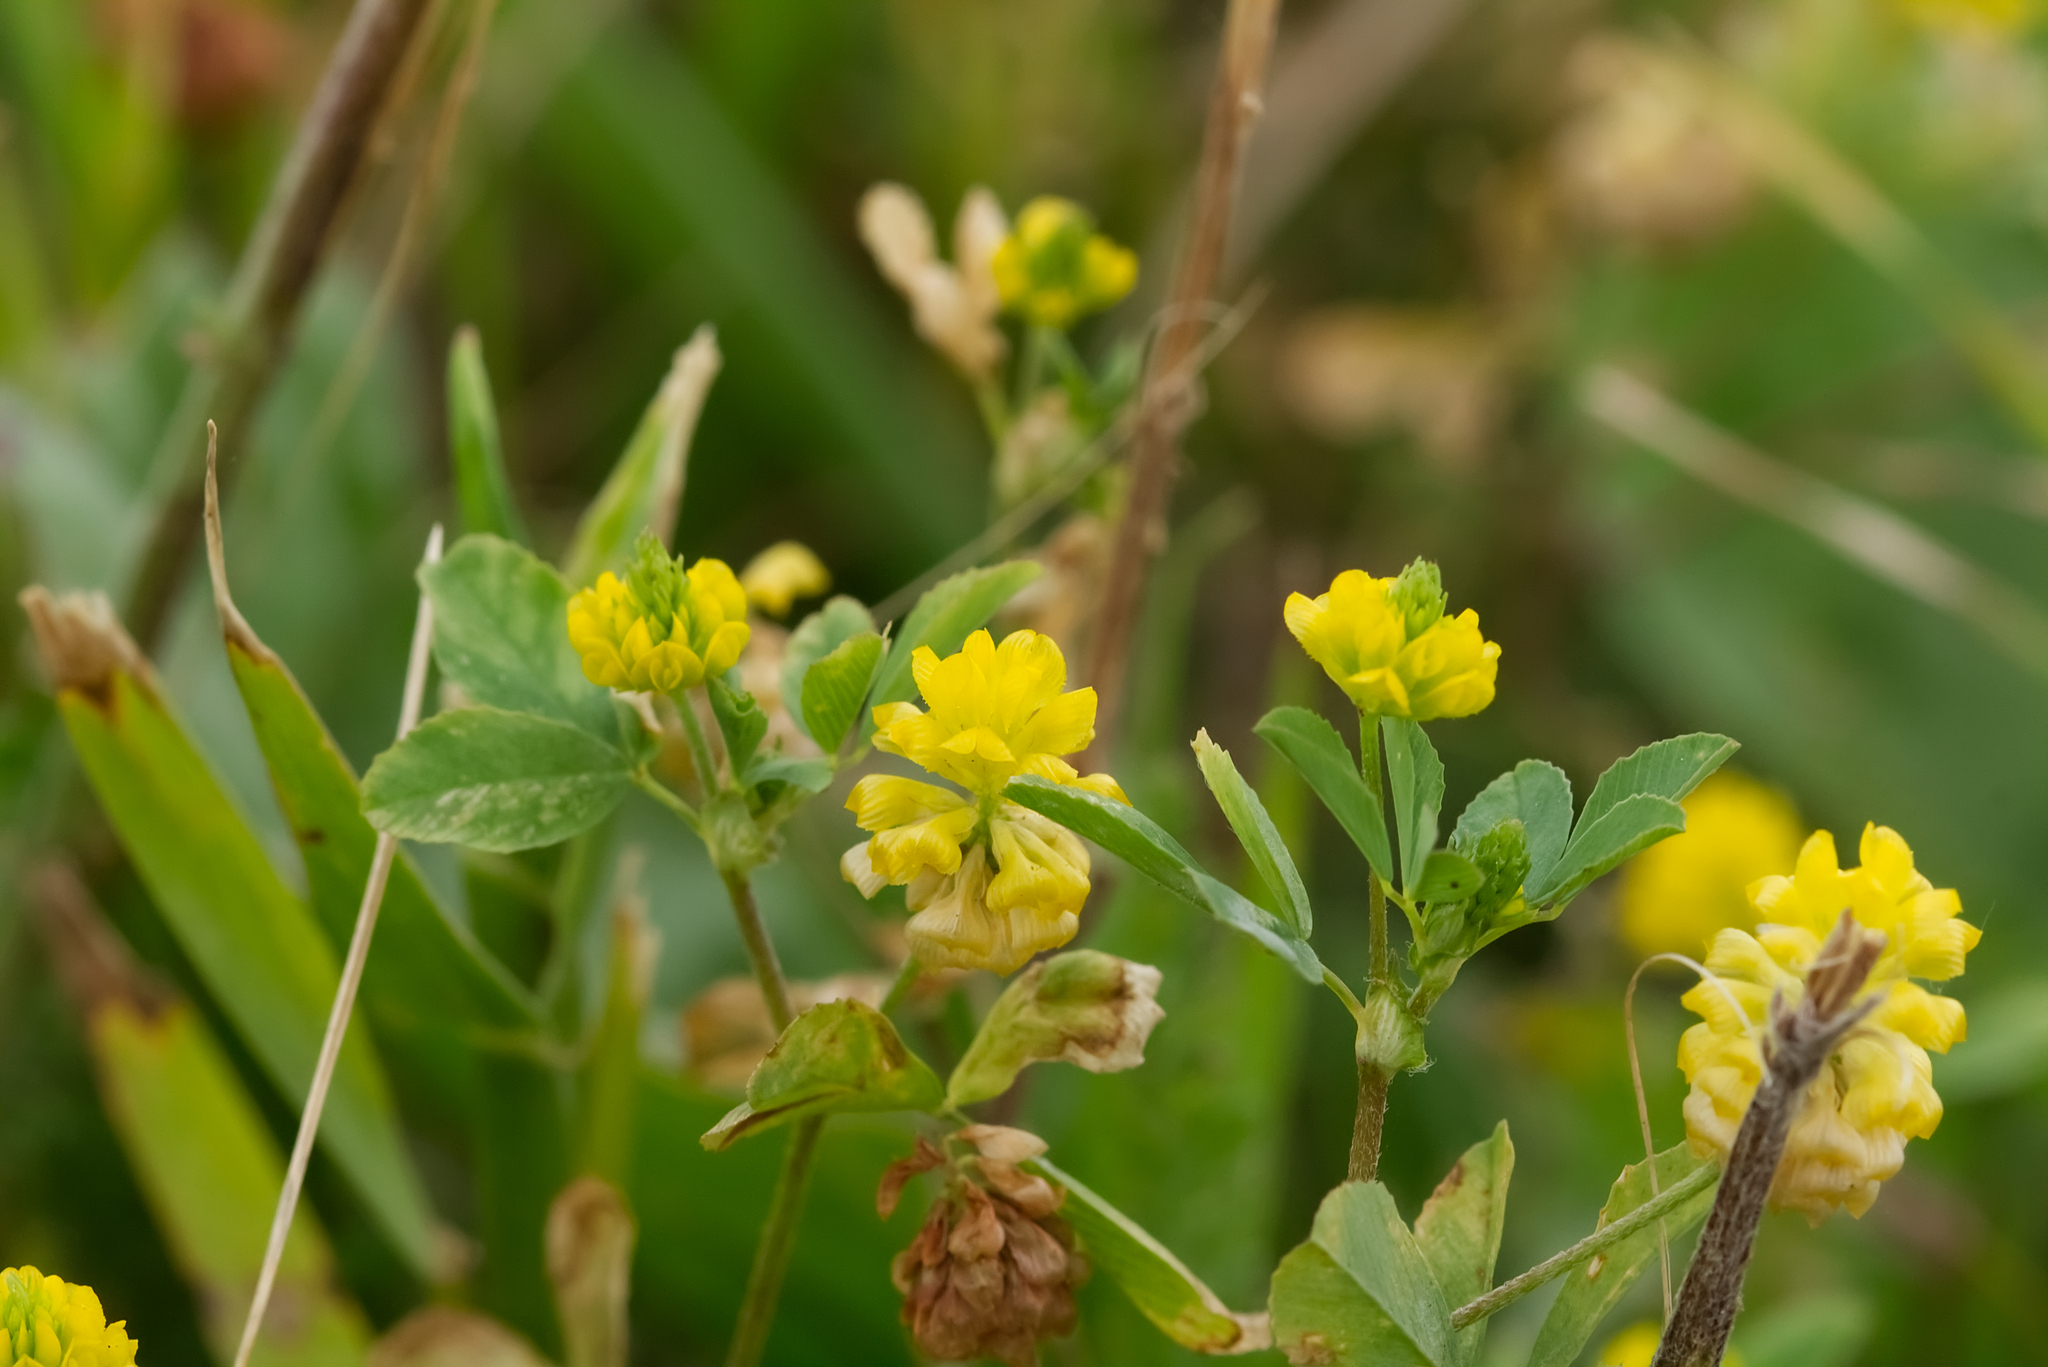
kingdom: Plantae
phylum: Tracheophyta
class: Magnoliopsida
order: Fabales
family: Fabaceae
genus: Trifolium
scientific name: Trifolium campestre
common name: Field clover
